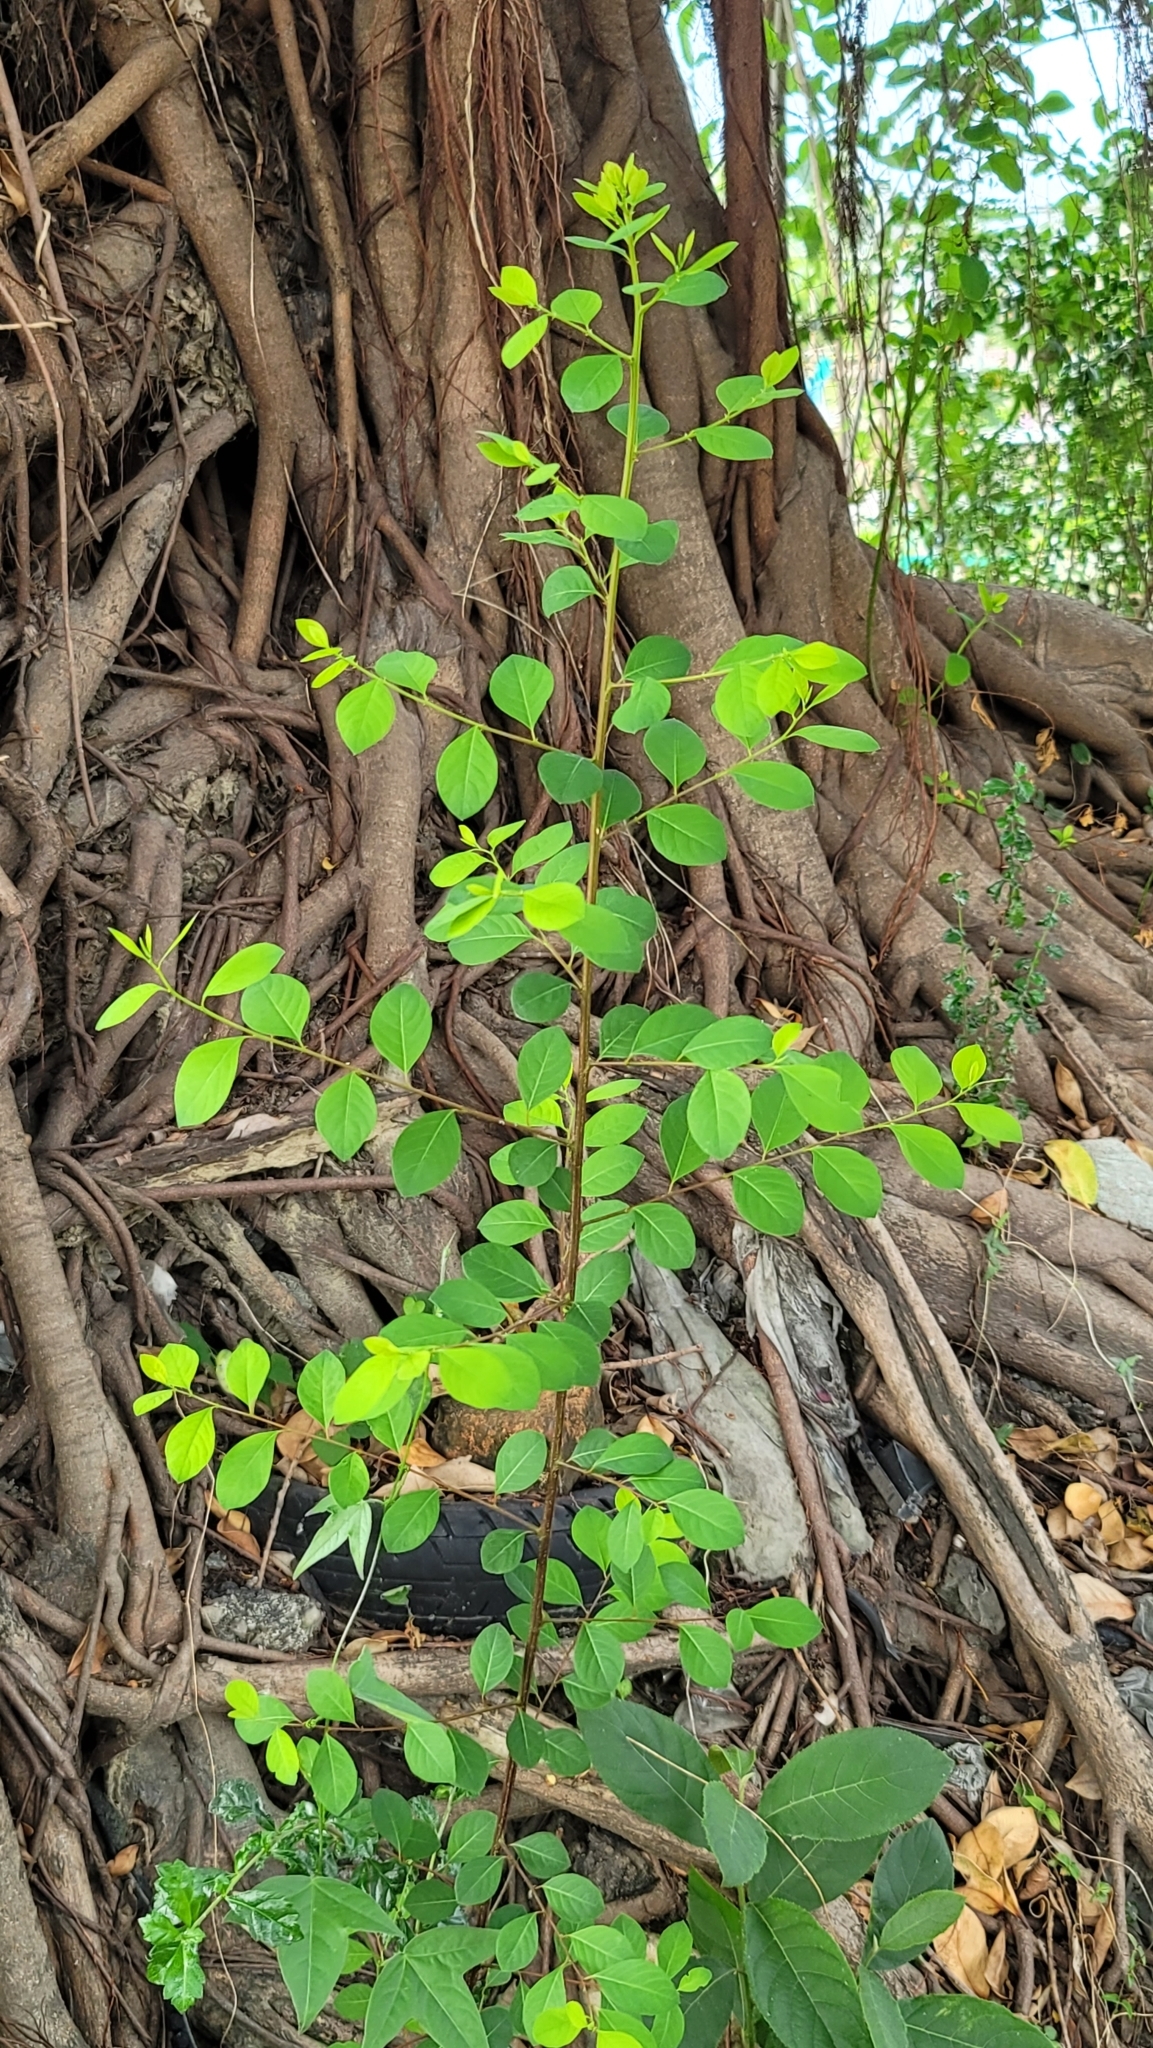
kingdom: Plantae
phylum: Tracheophyta
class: Magnoliopsida
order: Malpighiales
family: Phyllanthaceae
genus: Flueggea
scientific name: Flueggea virosa
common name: Common bushweed
